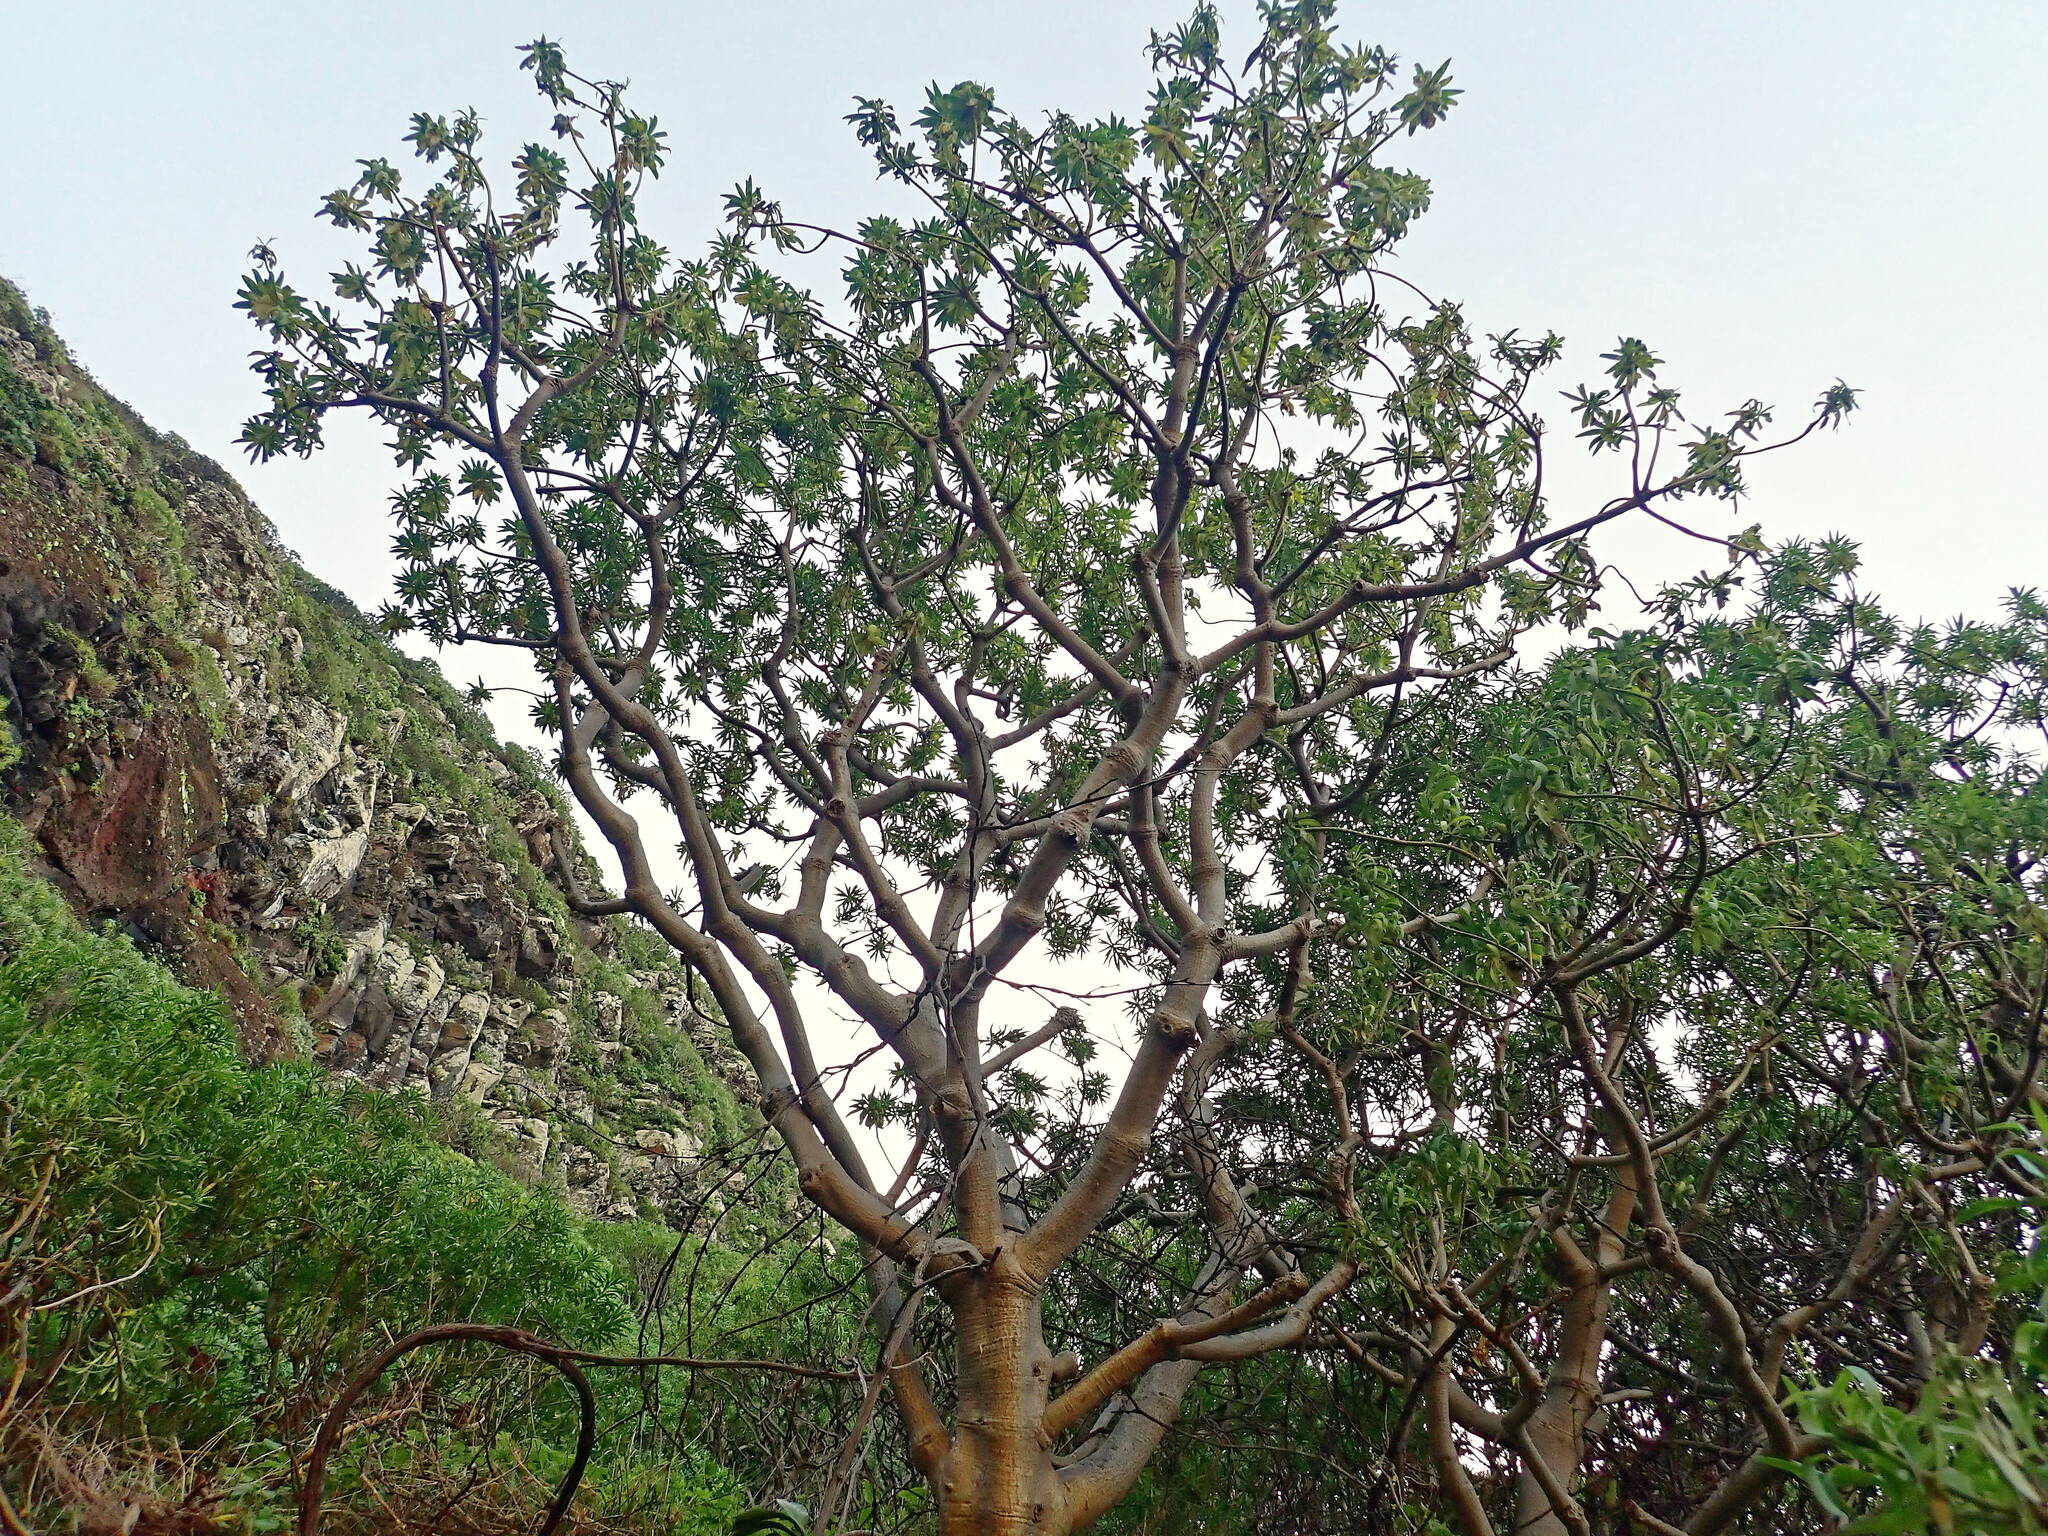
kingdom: Plantae
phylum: Tracheophyta
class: Magnoliopsida
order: Malpighiales
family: Euphorbiaceae
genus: Euphorbia
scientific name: Euphorbia piscatoria
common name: Fish-stunning spurge
